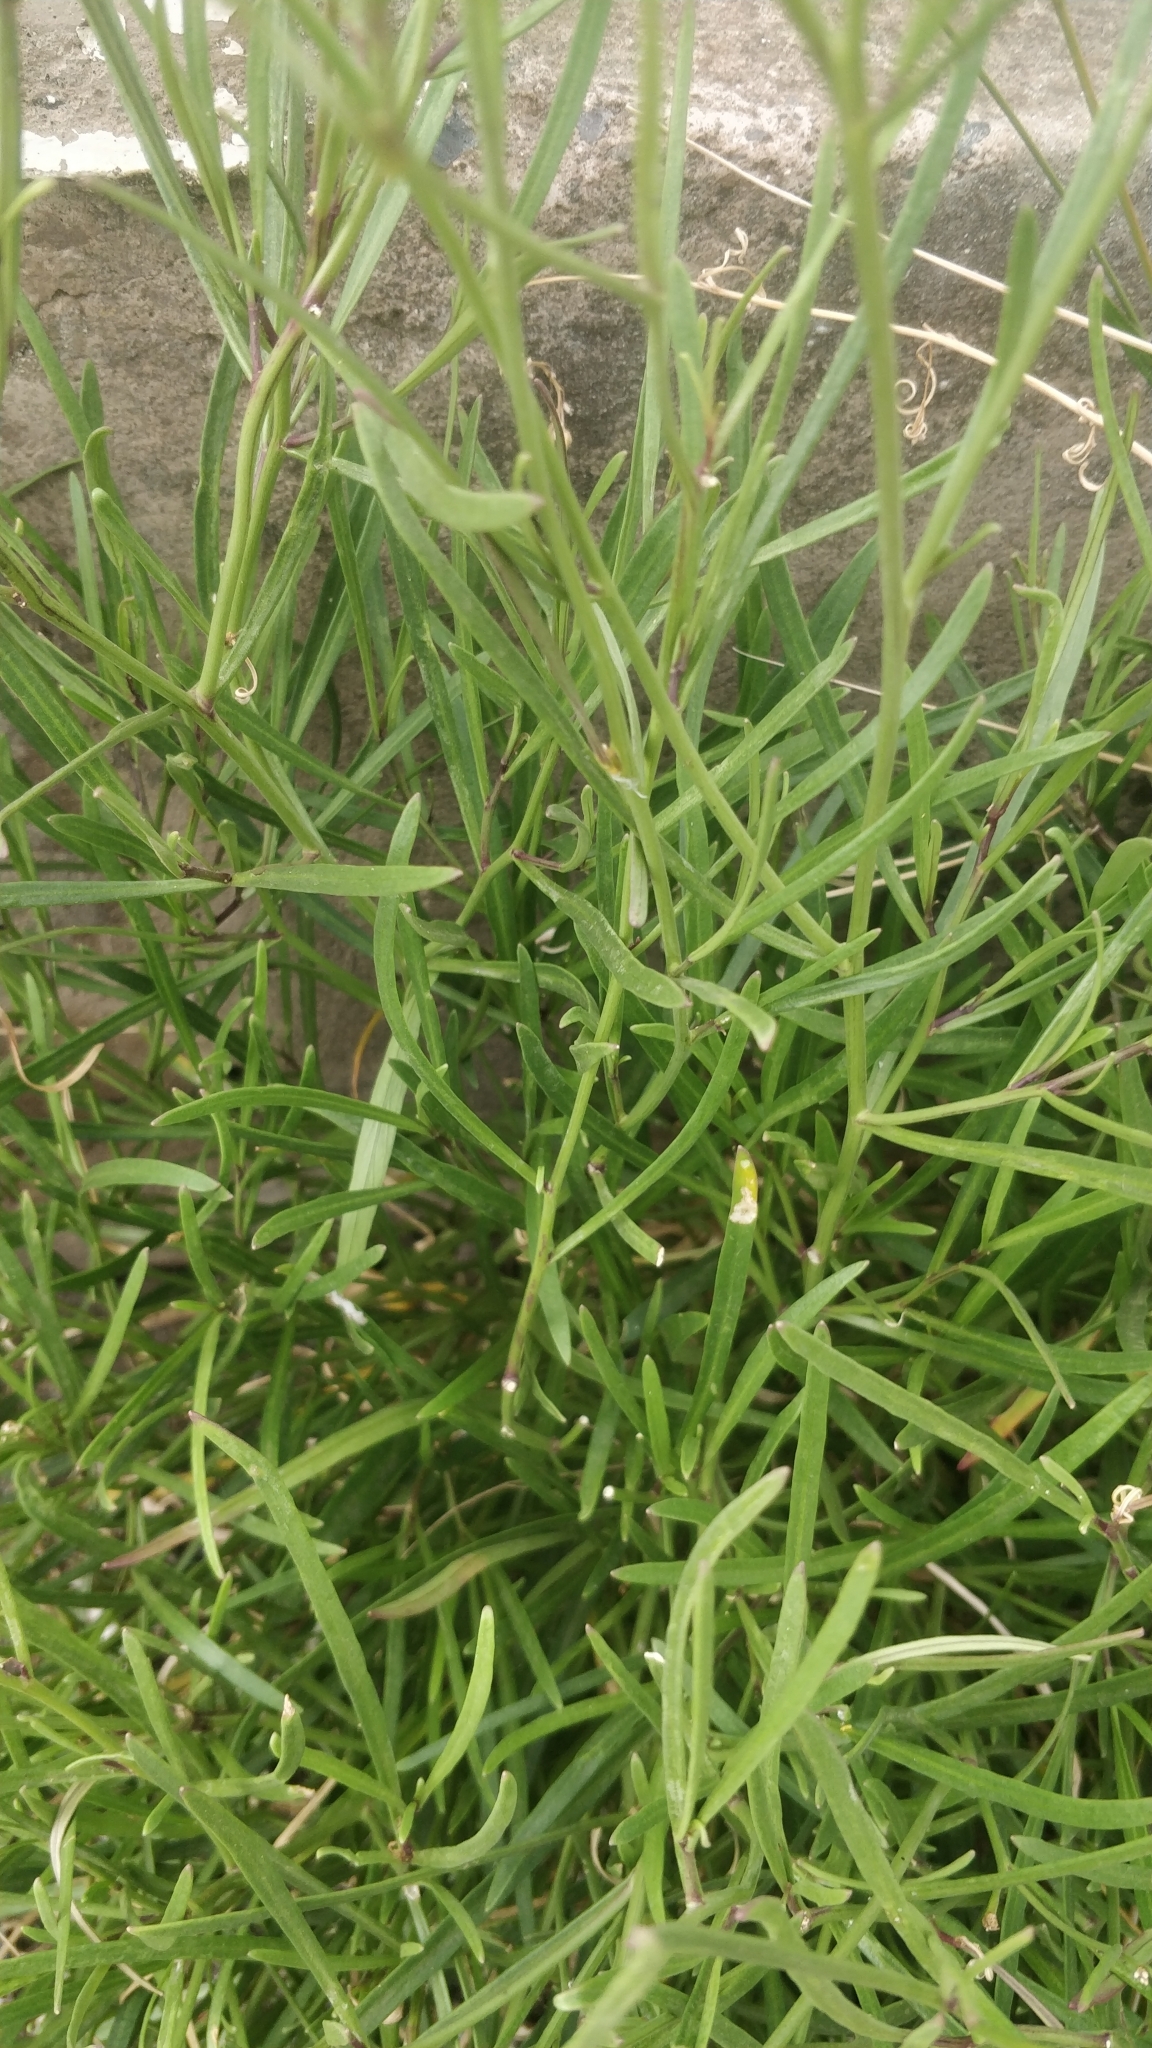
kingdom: Plantae
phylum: Tracheophyta
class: Magnoliopsida
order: Brassicales
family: Brassicaceae
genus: Sinapidendron
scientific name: Sinapidendron angustifolium
